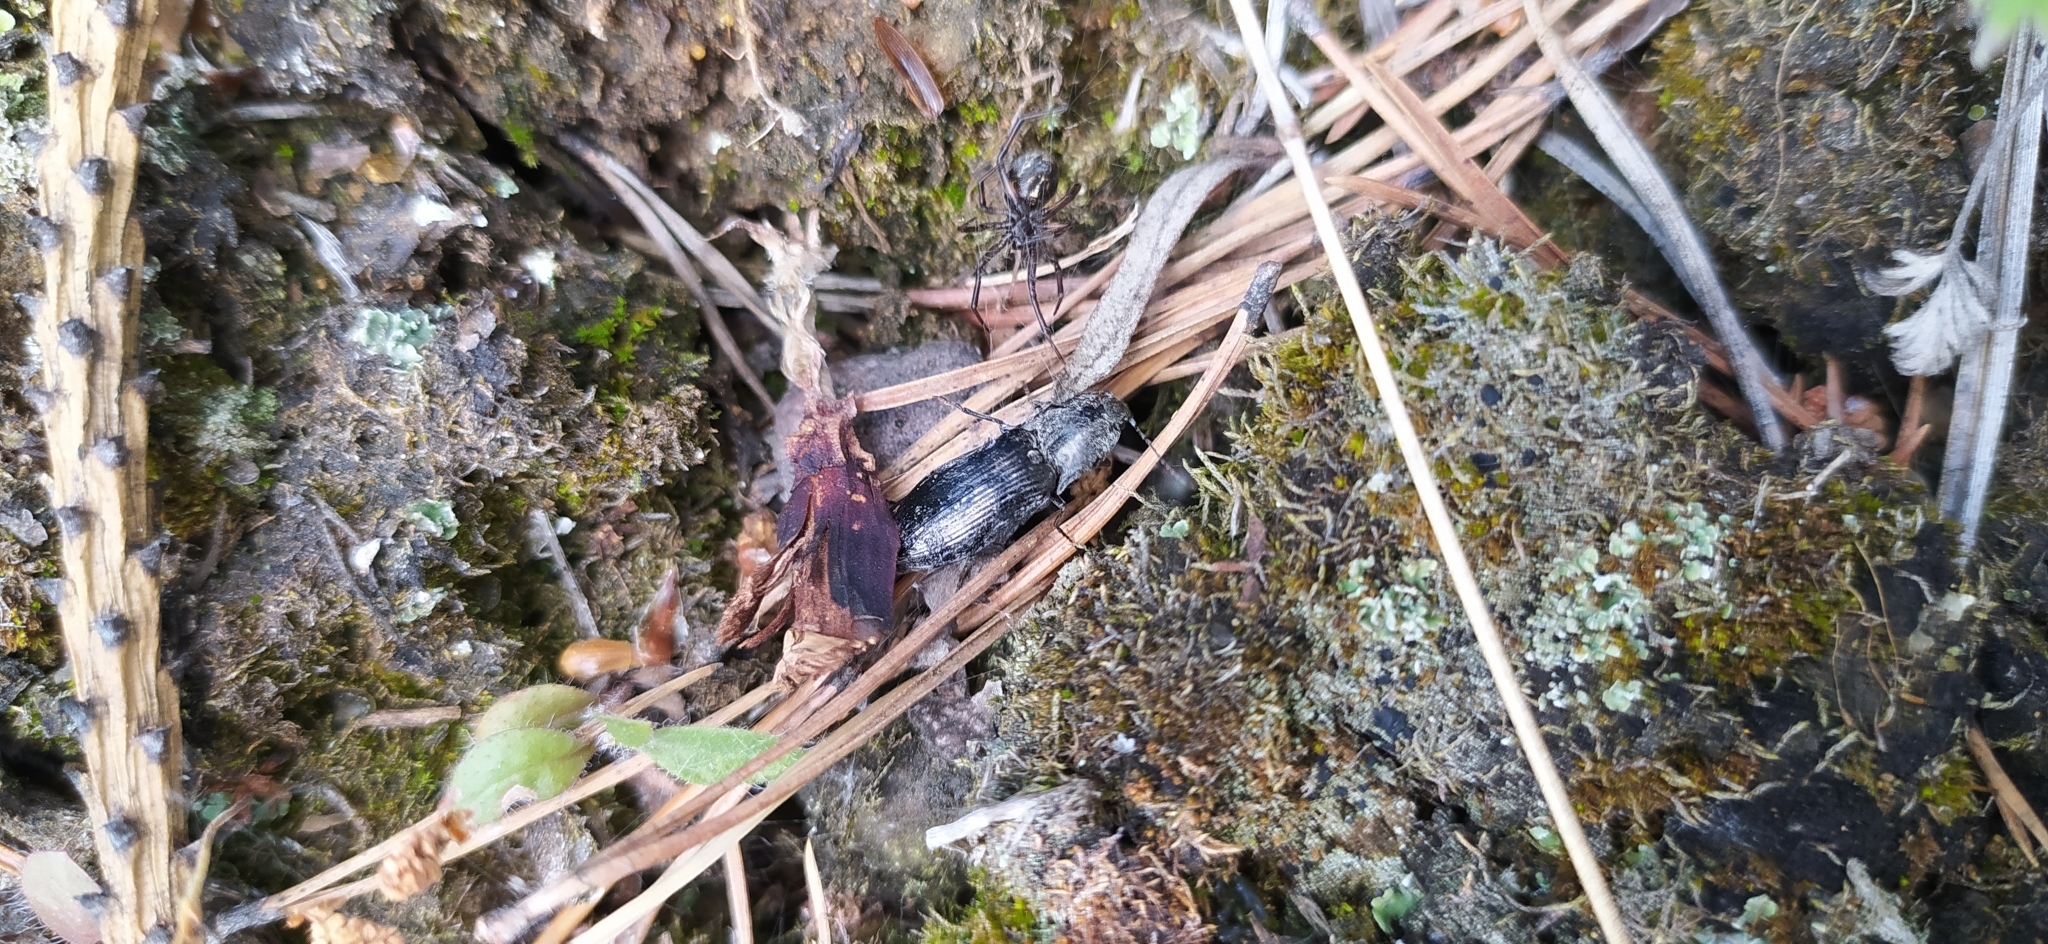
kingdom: Animalia
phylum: Arthropoda
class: Arachnida
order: Araneae
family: Theridiidae
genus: Steatoda
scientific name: Steatoda albomaculata
